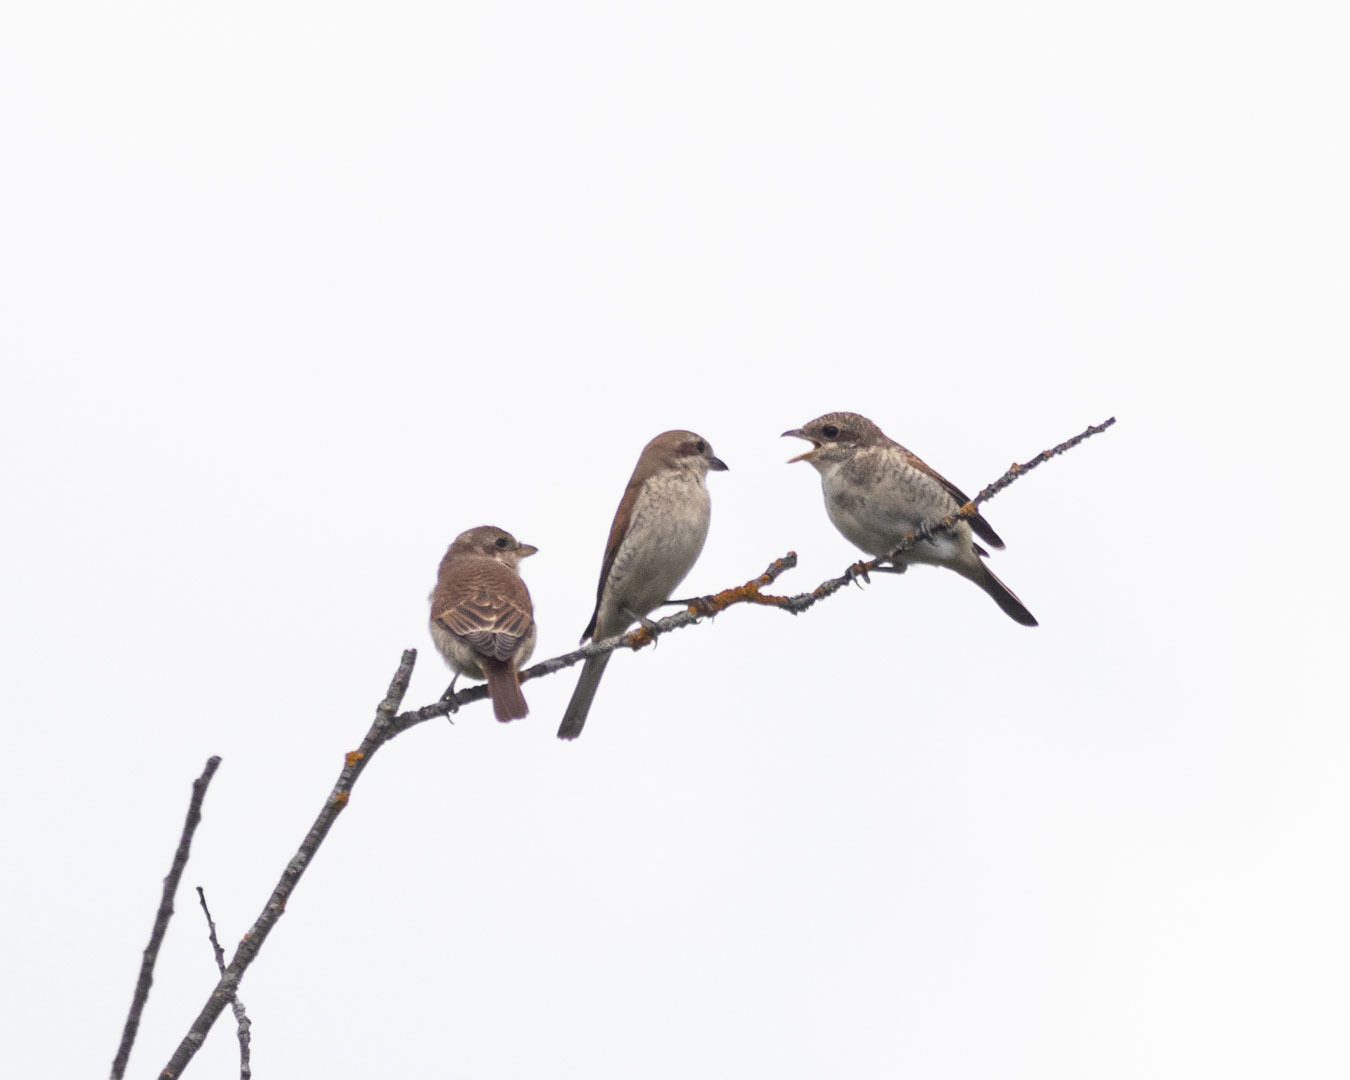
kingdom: Animalia
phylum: Chordata
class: Aves
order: Passeriformes
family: Laniidae
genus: Lanius
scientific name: Lanius collurio
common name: Red-backed shrike
